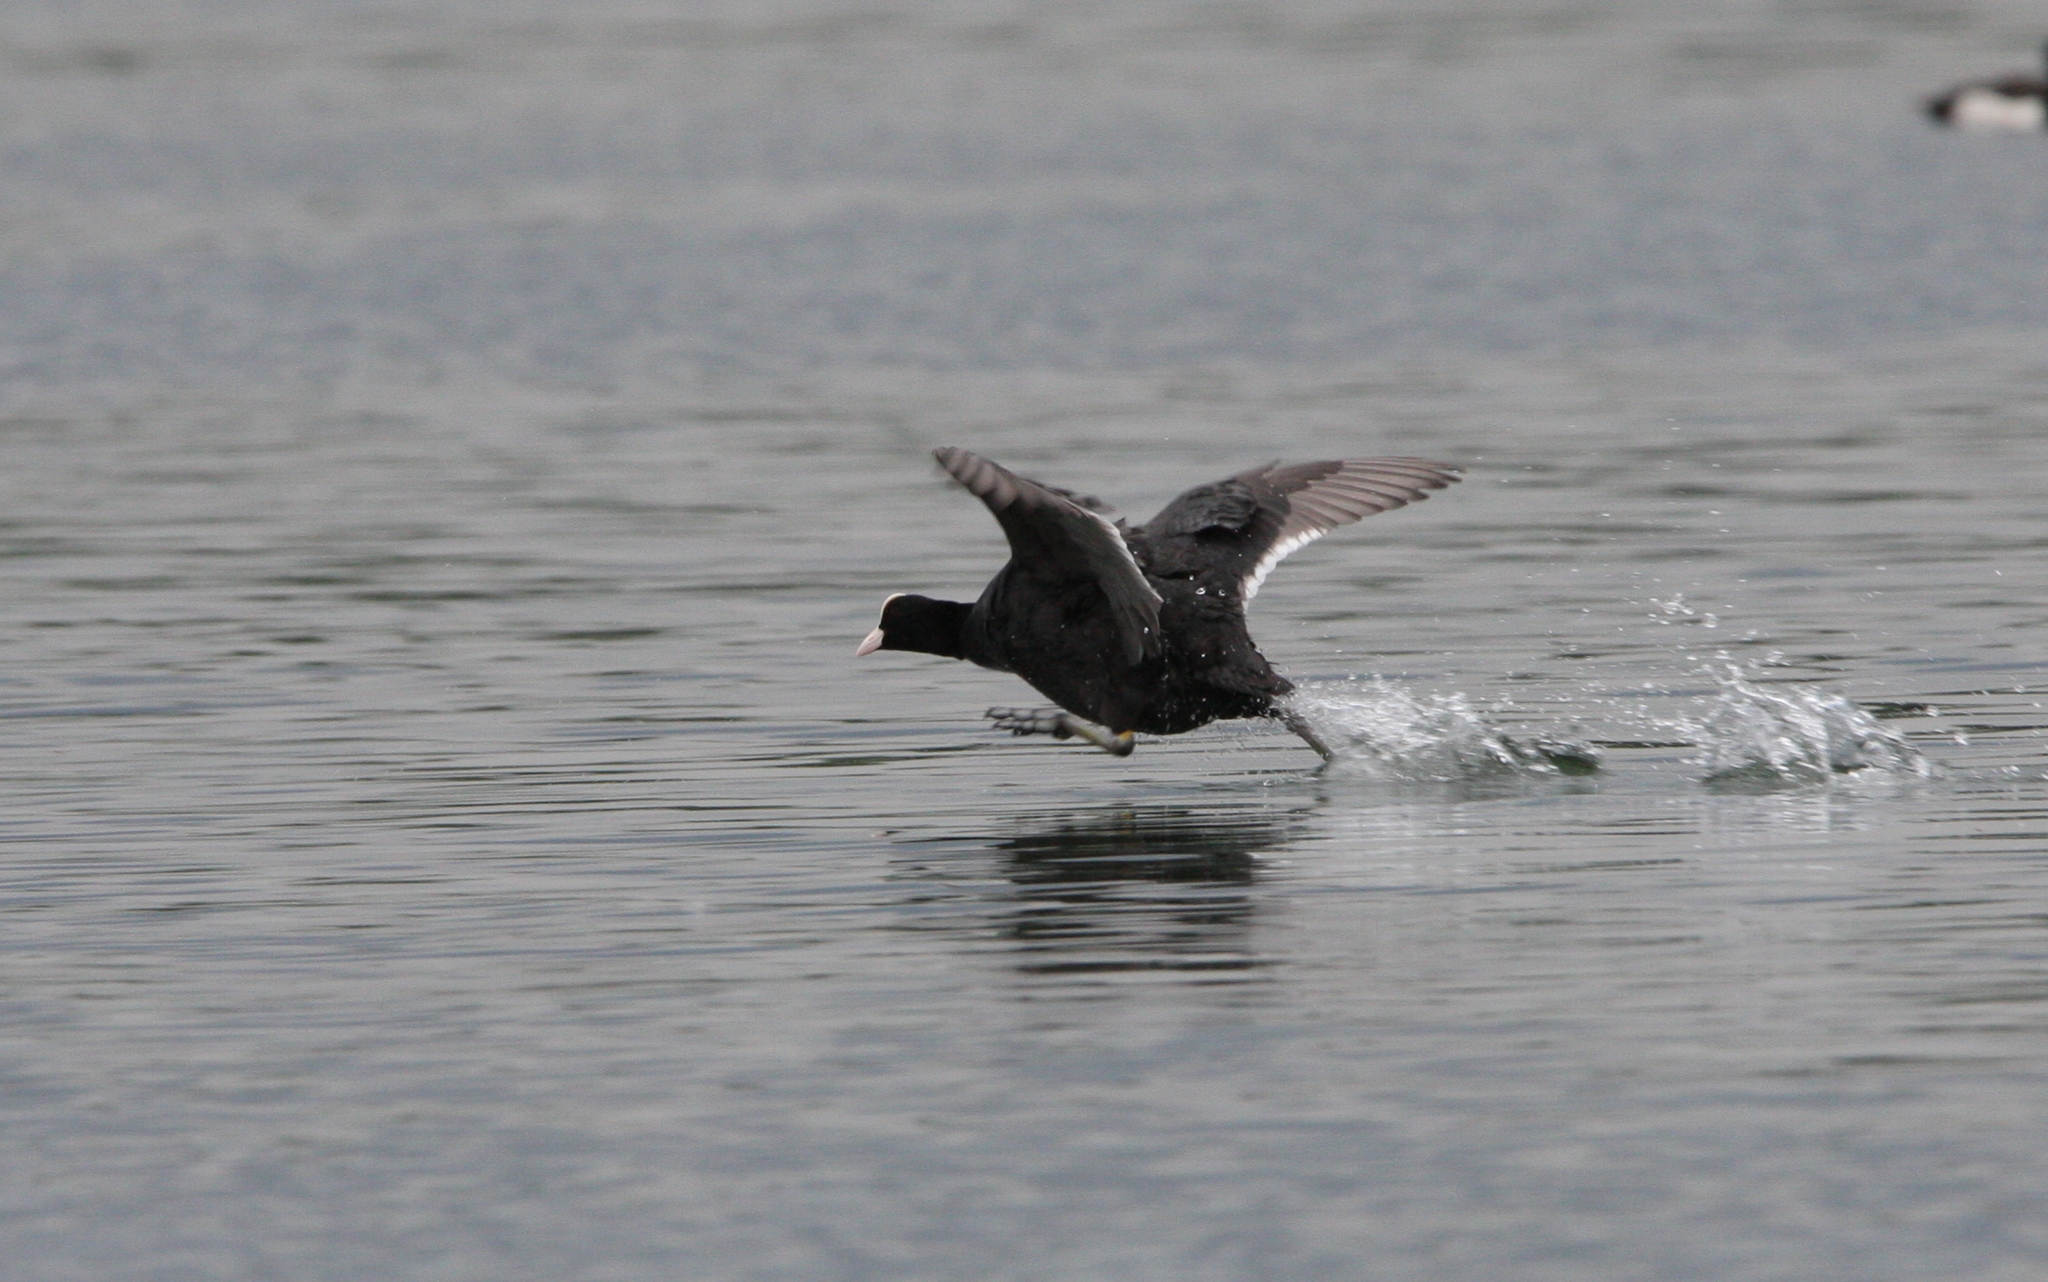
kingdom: Animalia
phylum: Chordata
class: Aves
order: Gruiformes
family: Rallidae
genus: Fulica
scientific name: Fulica atra
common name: Eurasian coot
